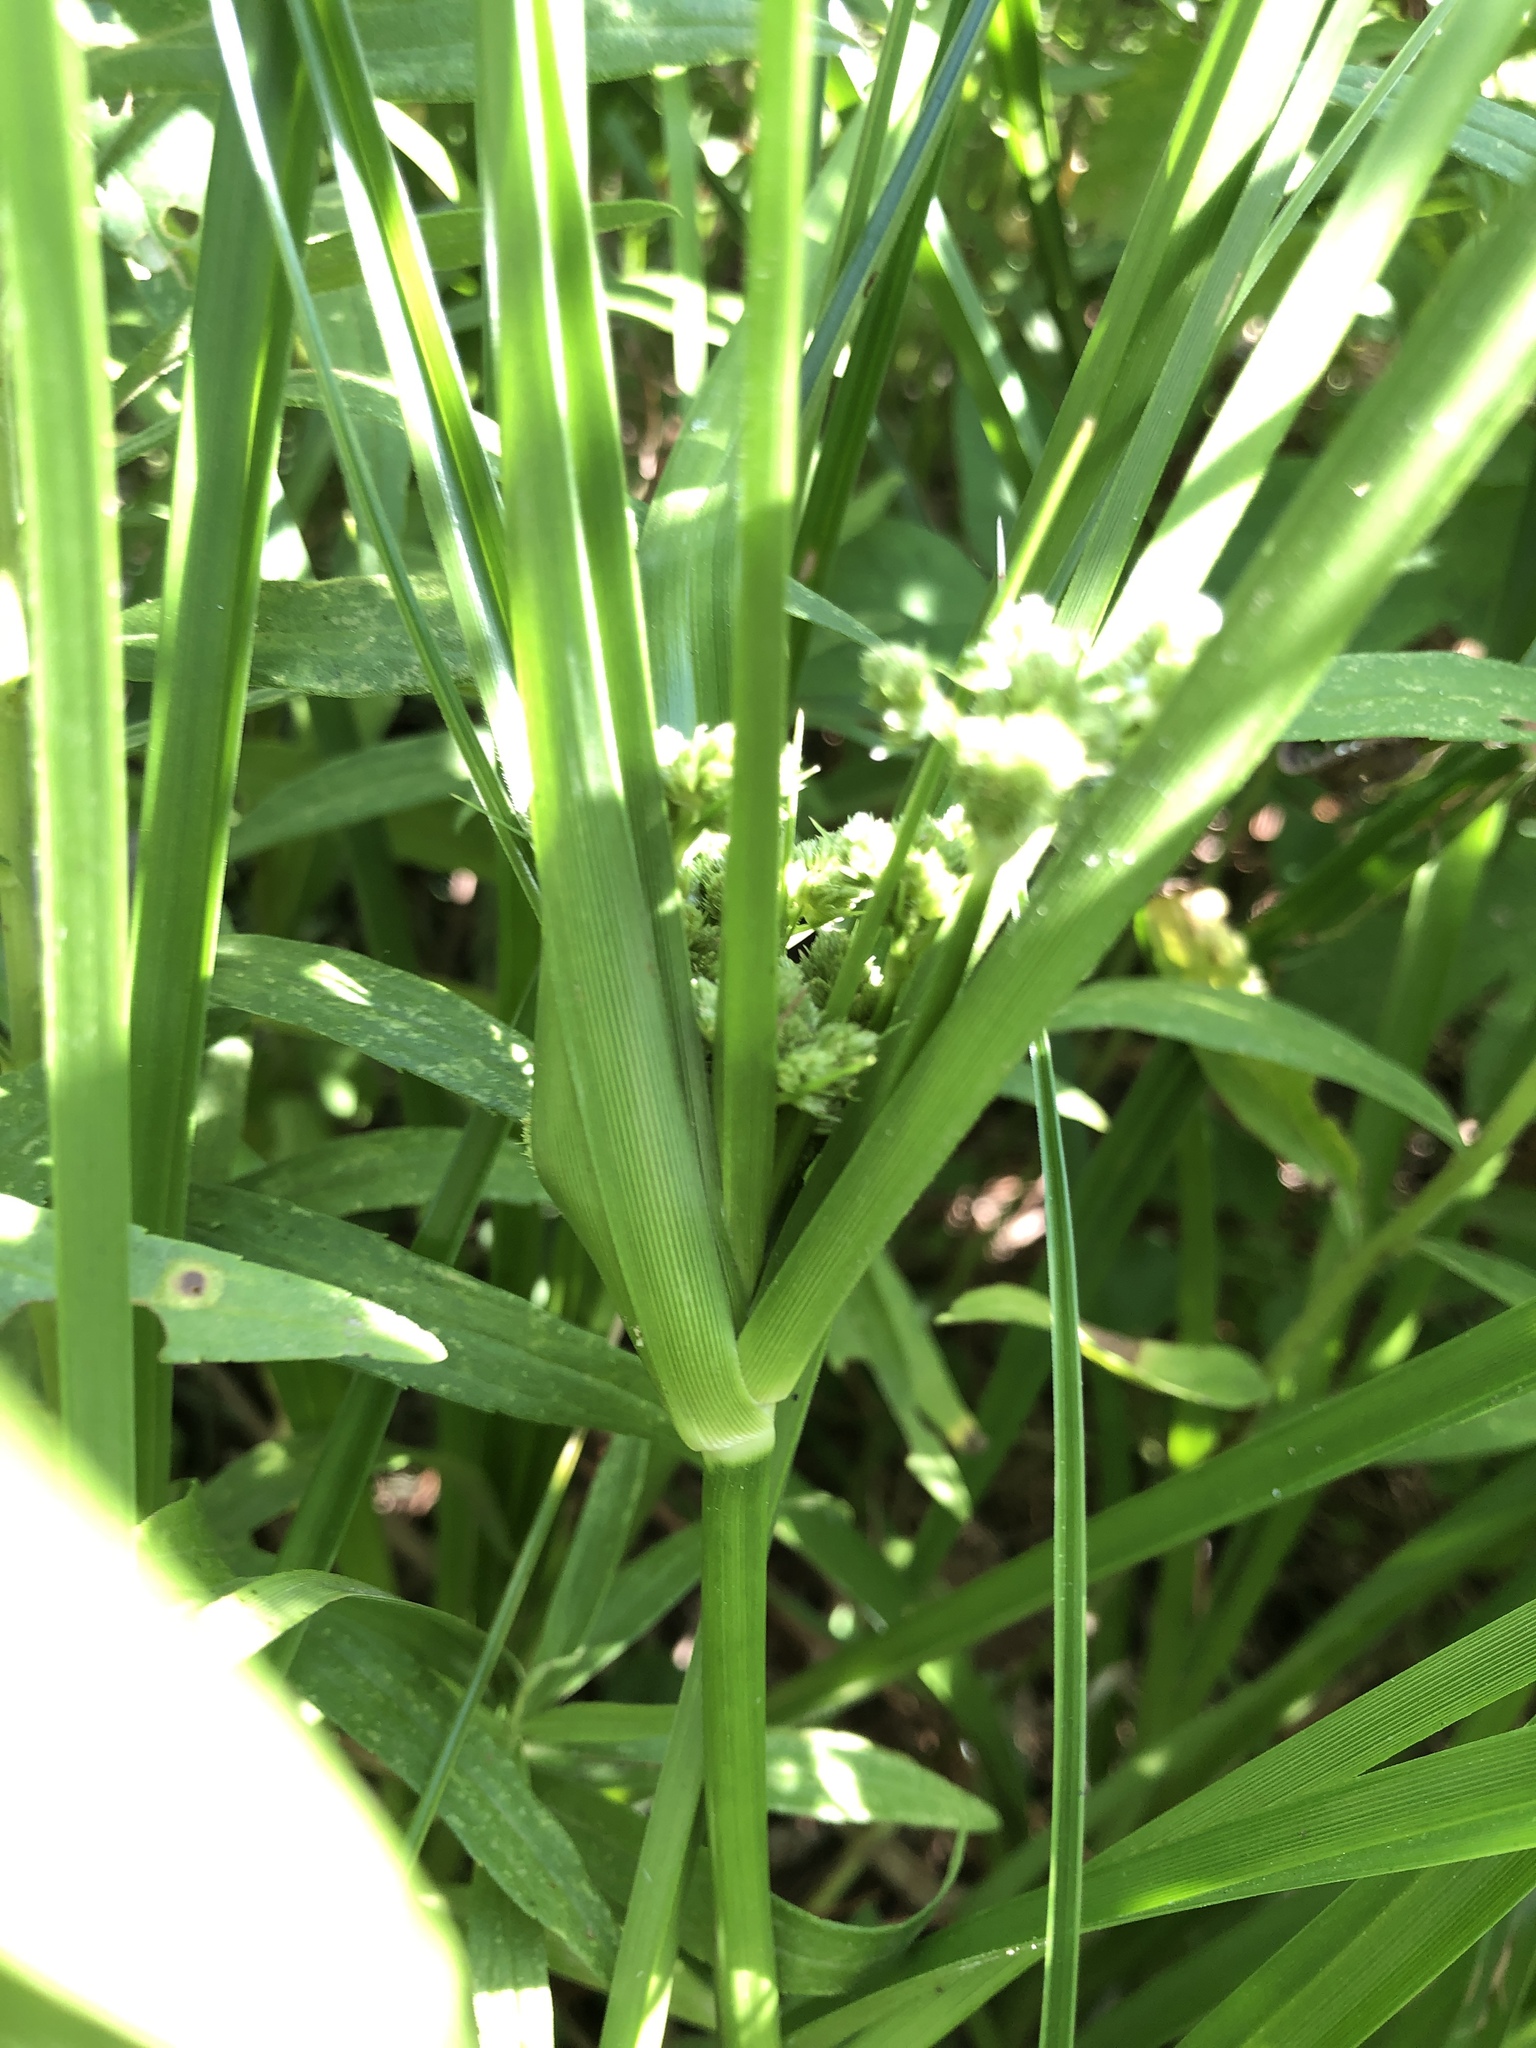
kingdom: Plantae
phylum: Tracheophyta
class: Liliopsida
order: Poales
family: Cyperaceae
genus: Cyperus
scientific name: Cyperus entrerianus
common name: Woodrush flatsedge
